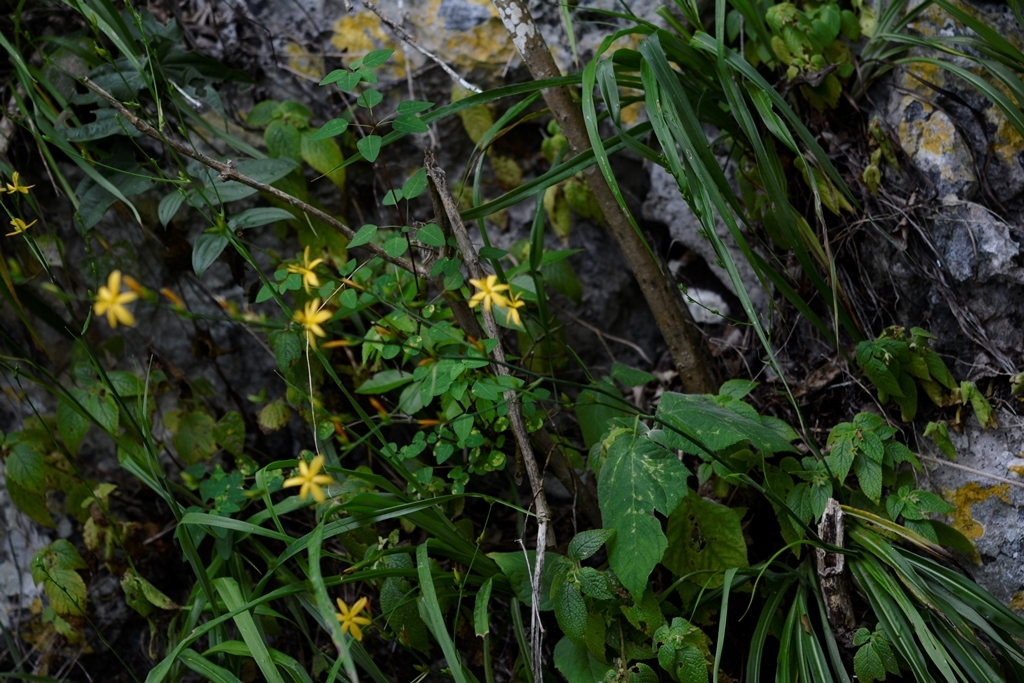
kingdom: Plantae
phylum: Tracheophyta
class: Liliopsida
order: Asparagales
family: Asparagaceae
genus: Echeandia
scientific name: Echeandia breedlovei
